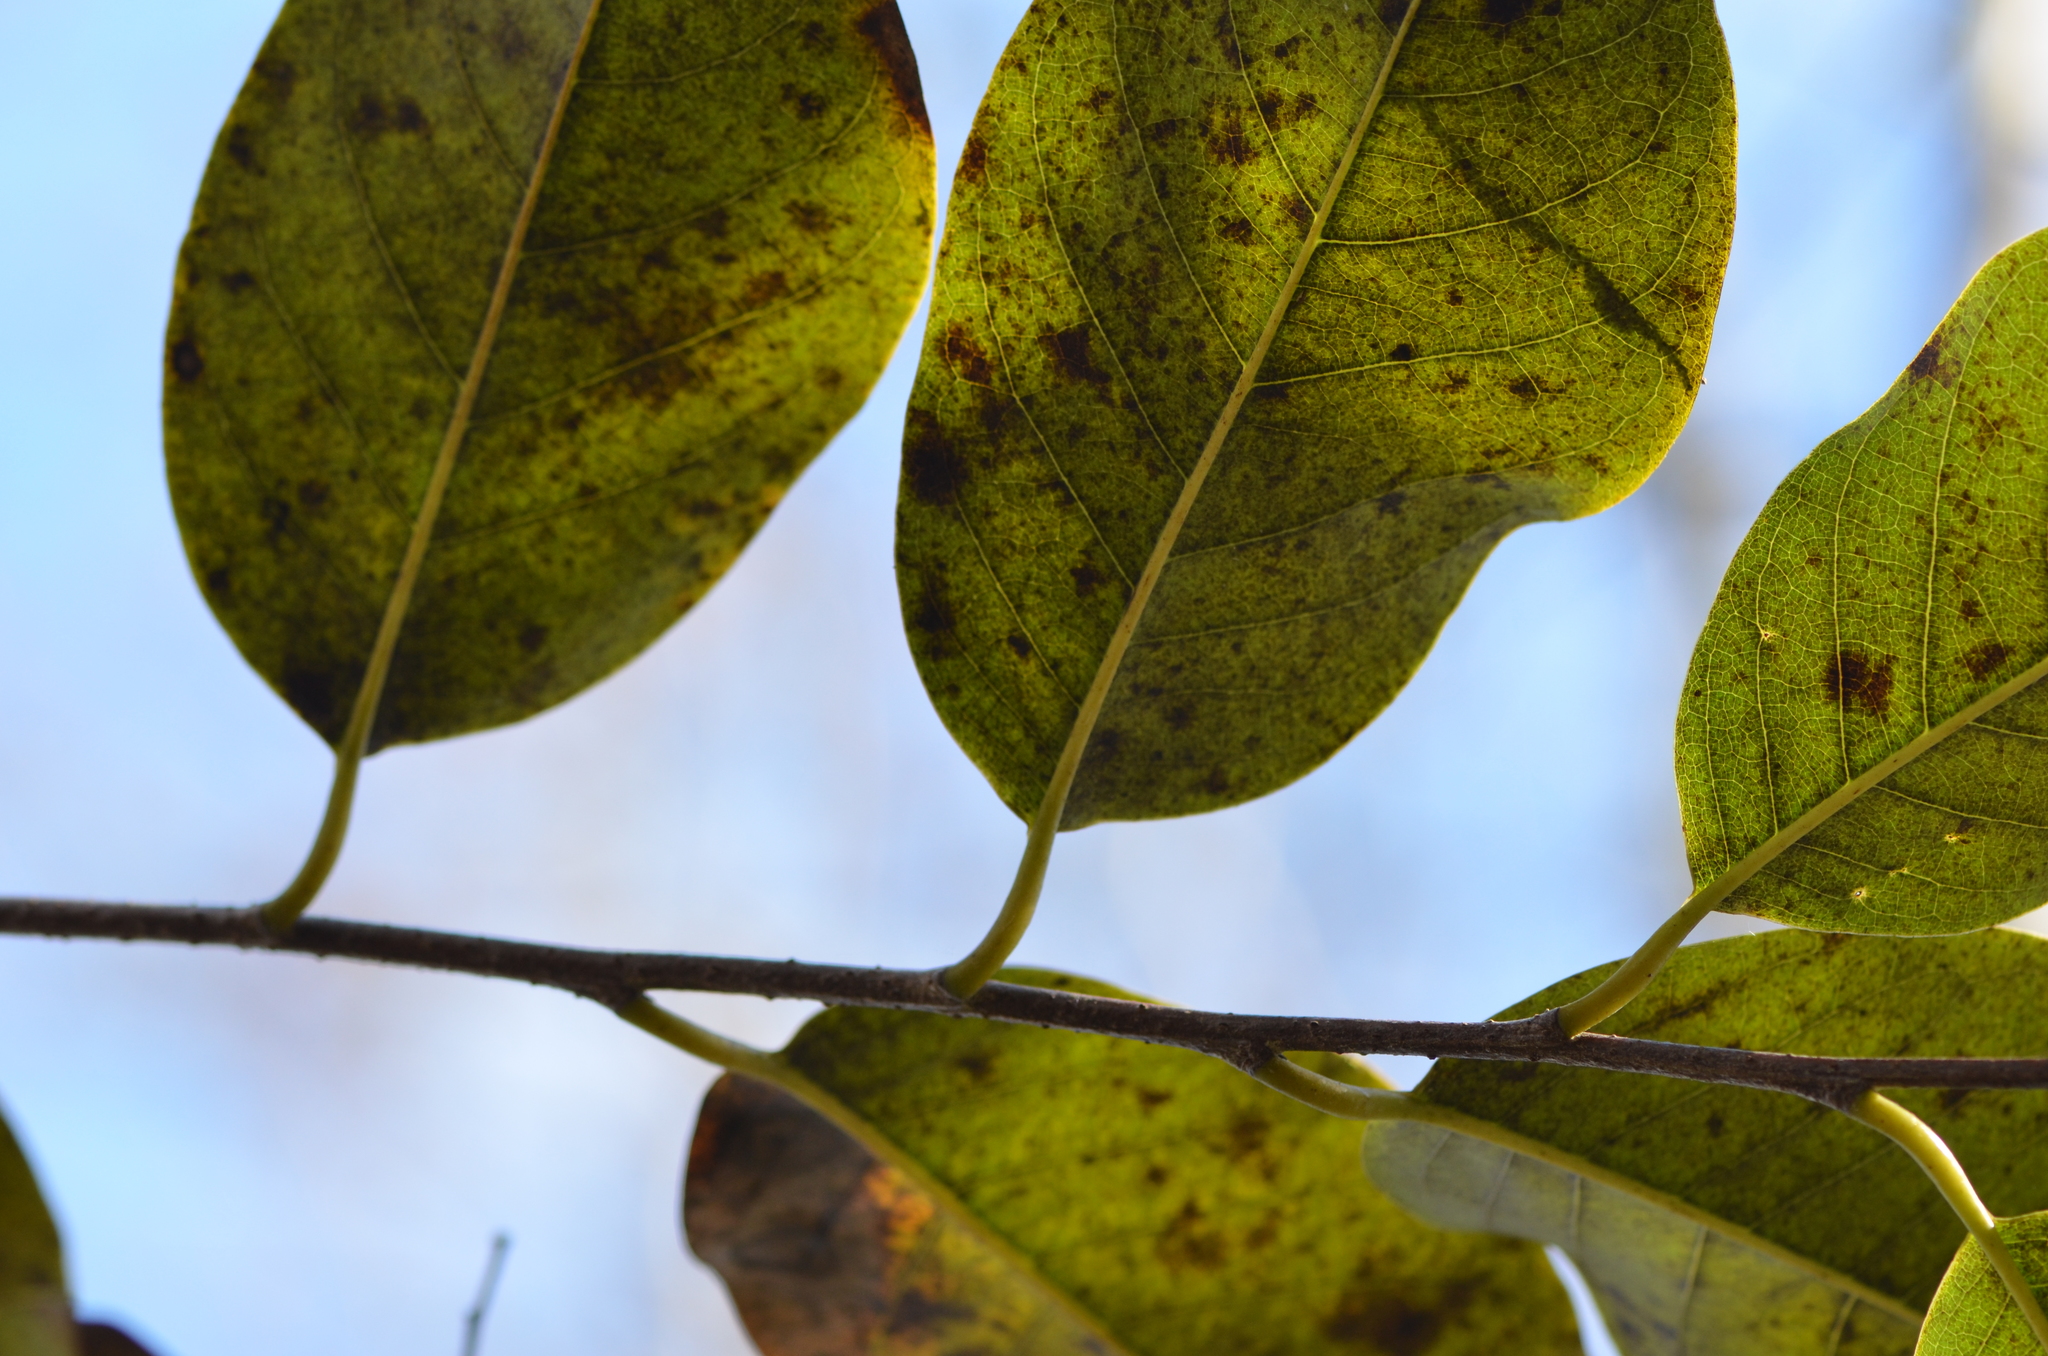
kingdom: Plantae
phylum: Tracheophyta
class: Magnoliopsida
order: Magnoliales
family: Annonaceae
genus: Annona
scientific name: Annona glabra
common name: Monkey apple
